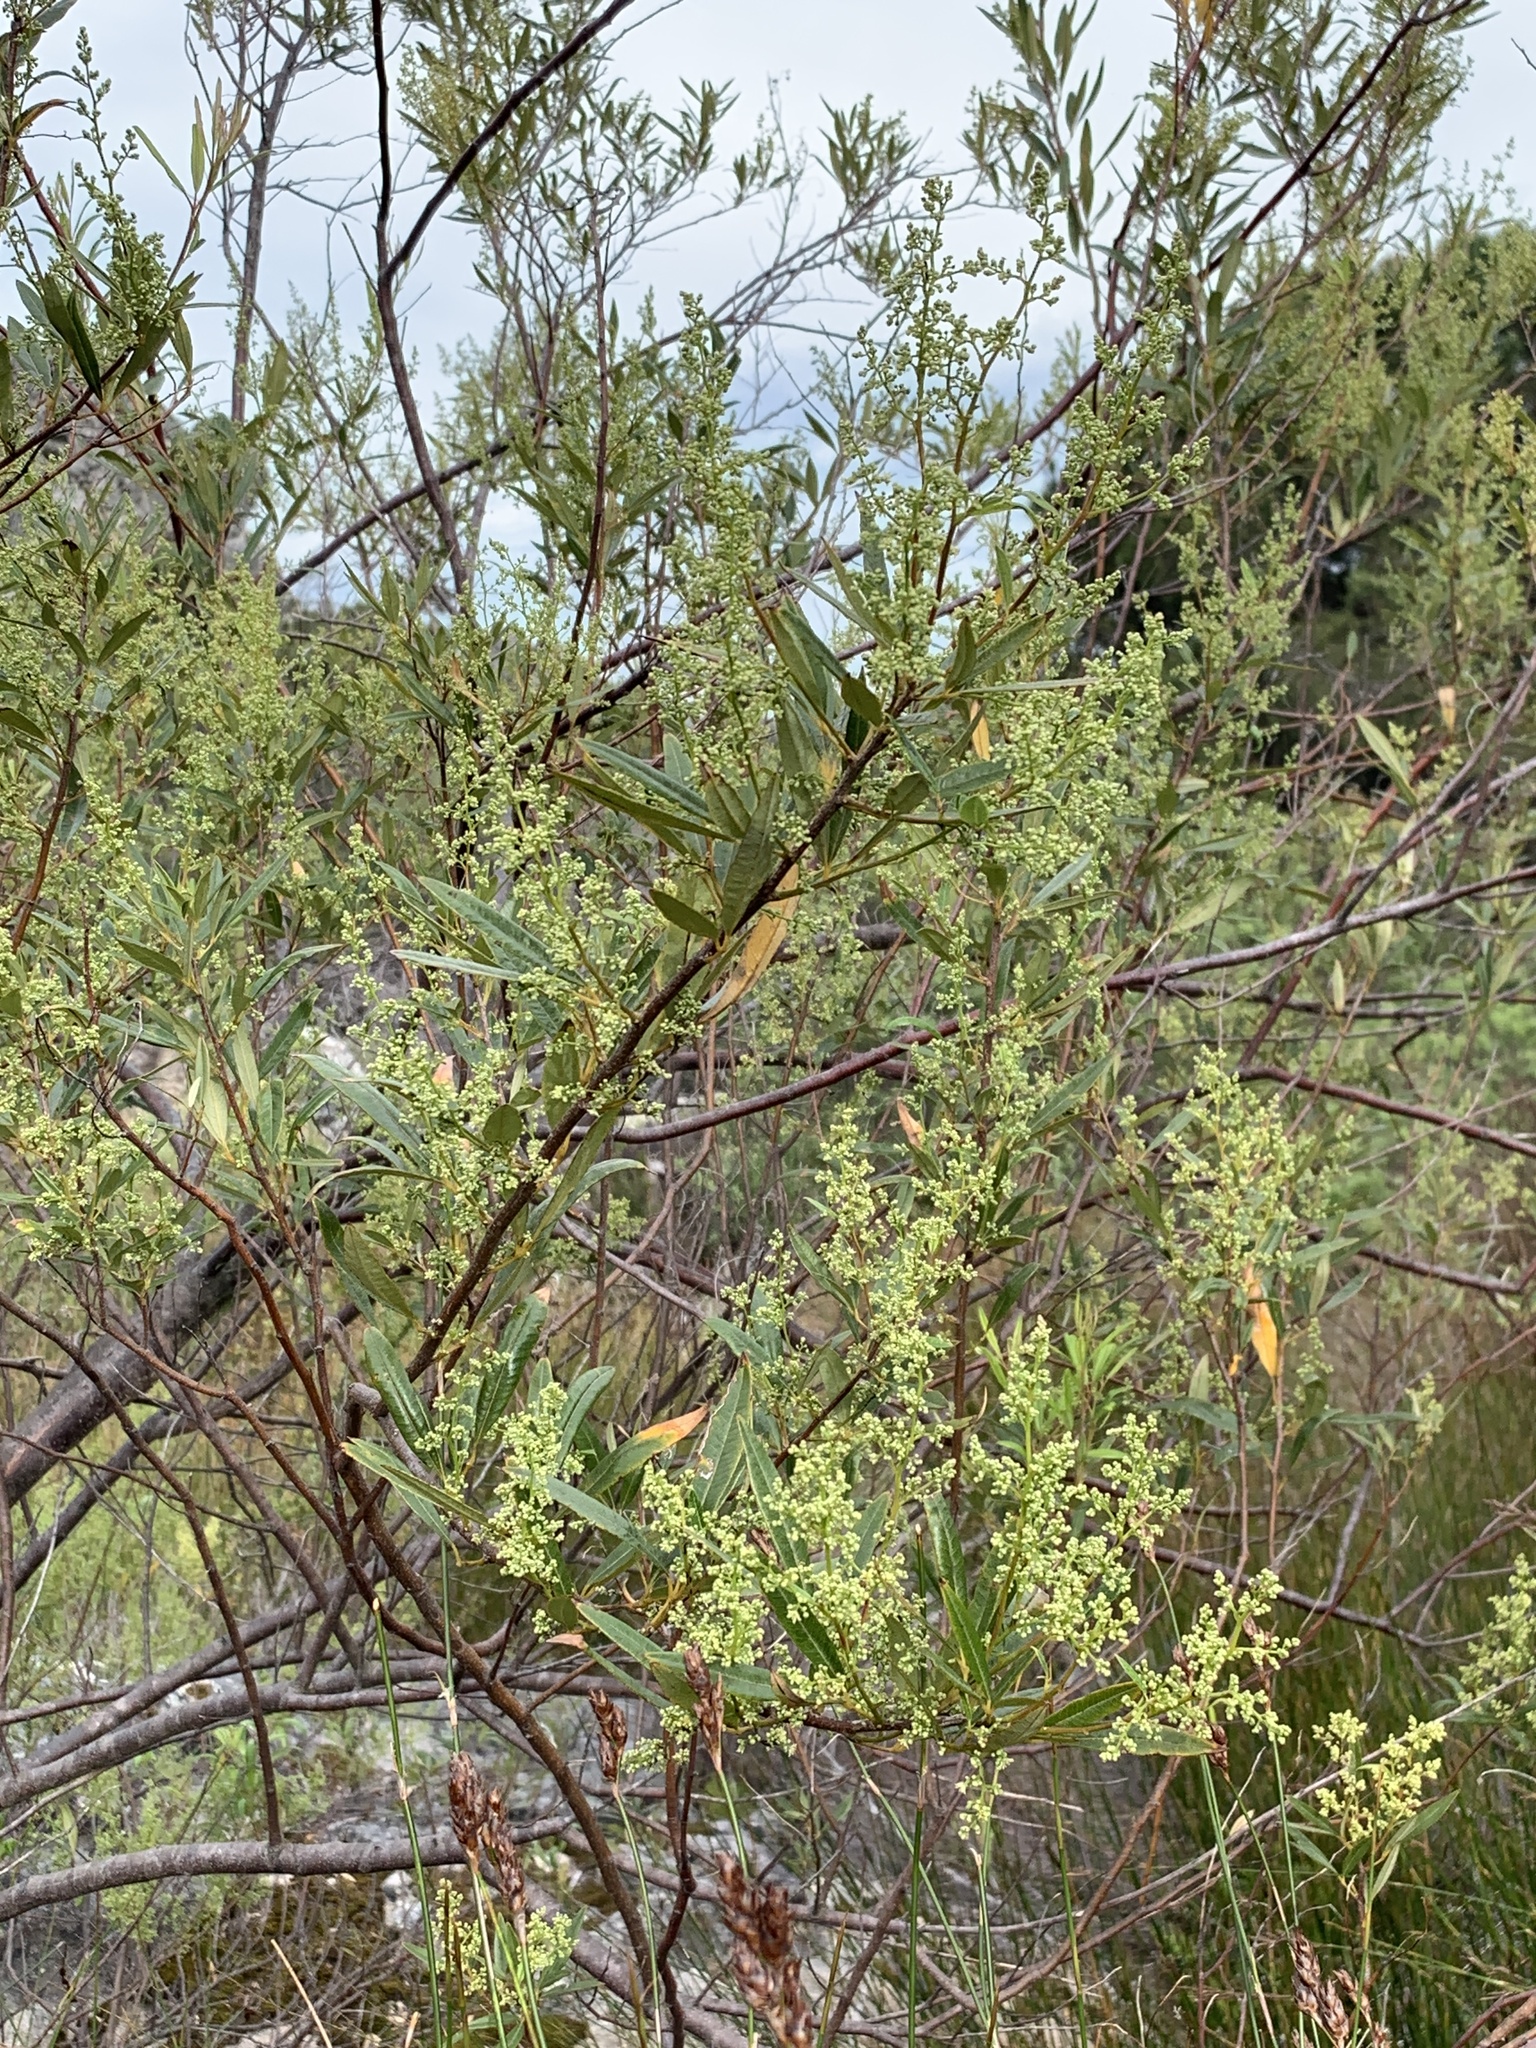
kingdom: Plantae
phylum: Tracheophyta
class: Magnoliopsida
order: Sapindales
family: Anacardiaceae
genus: Searsia
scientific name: Searsia angustifolia
